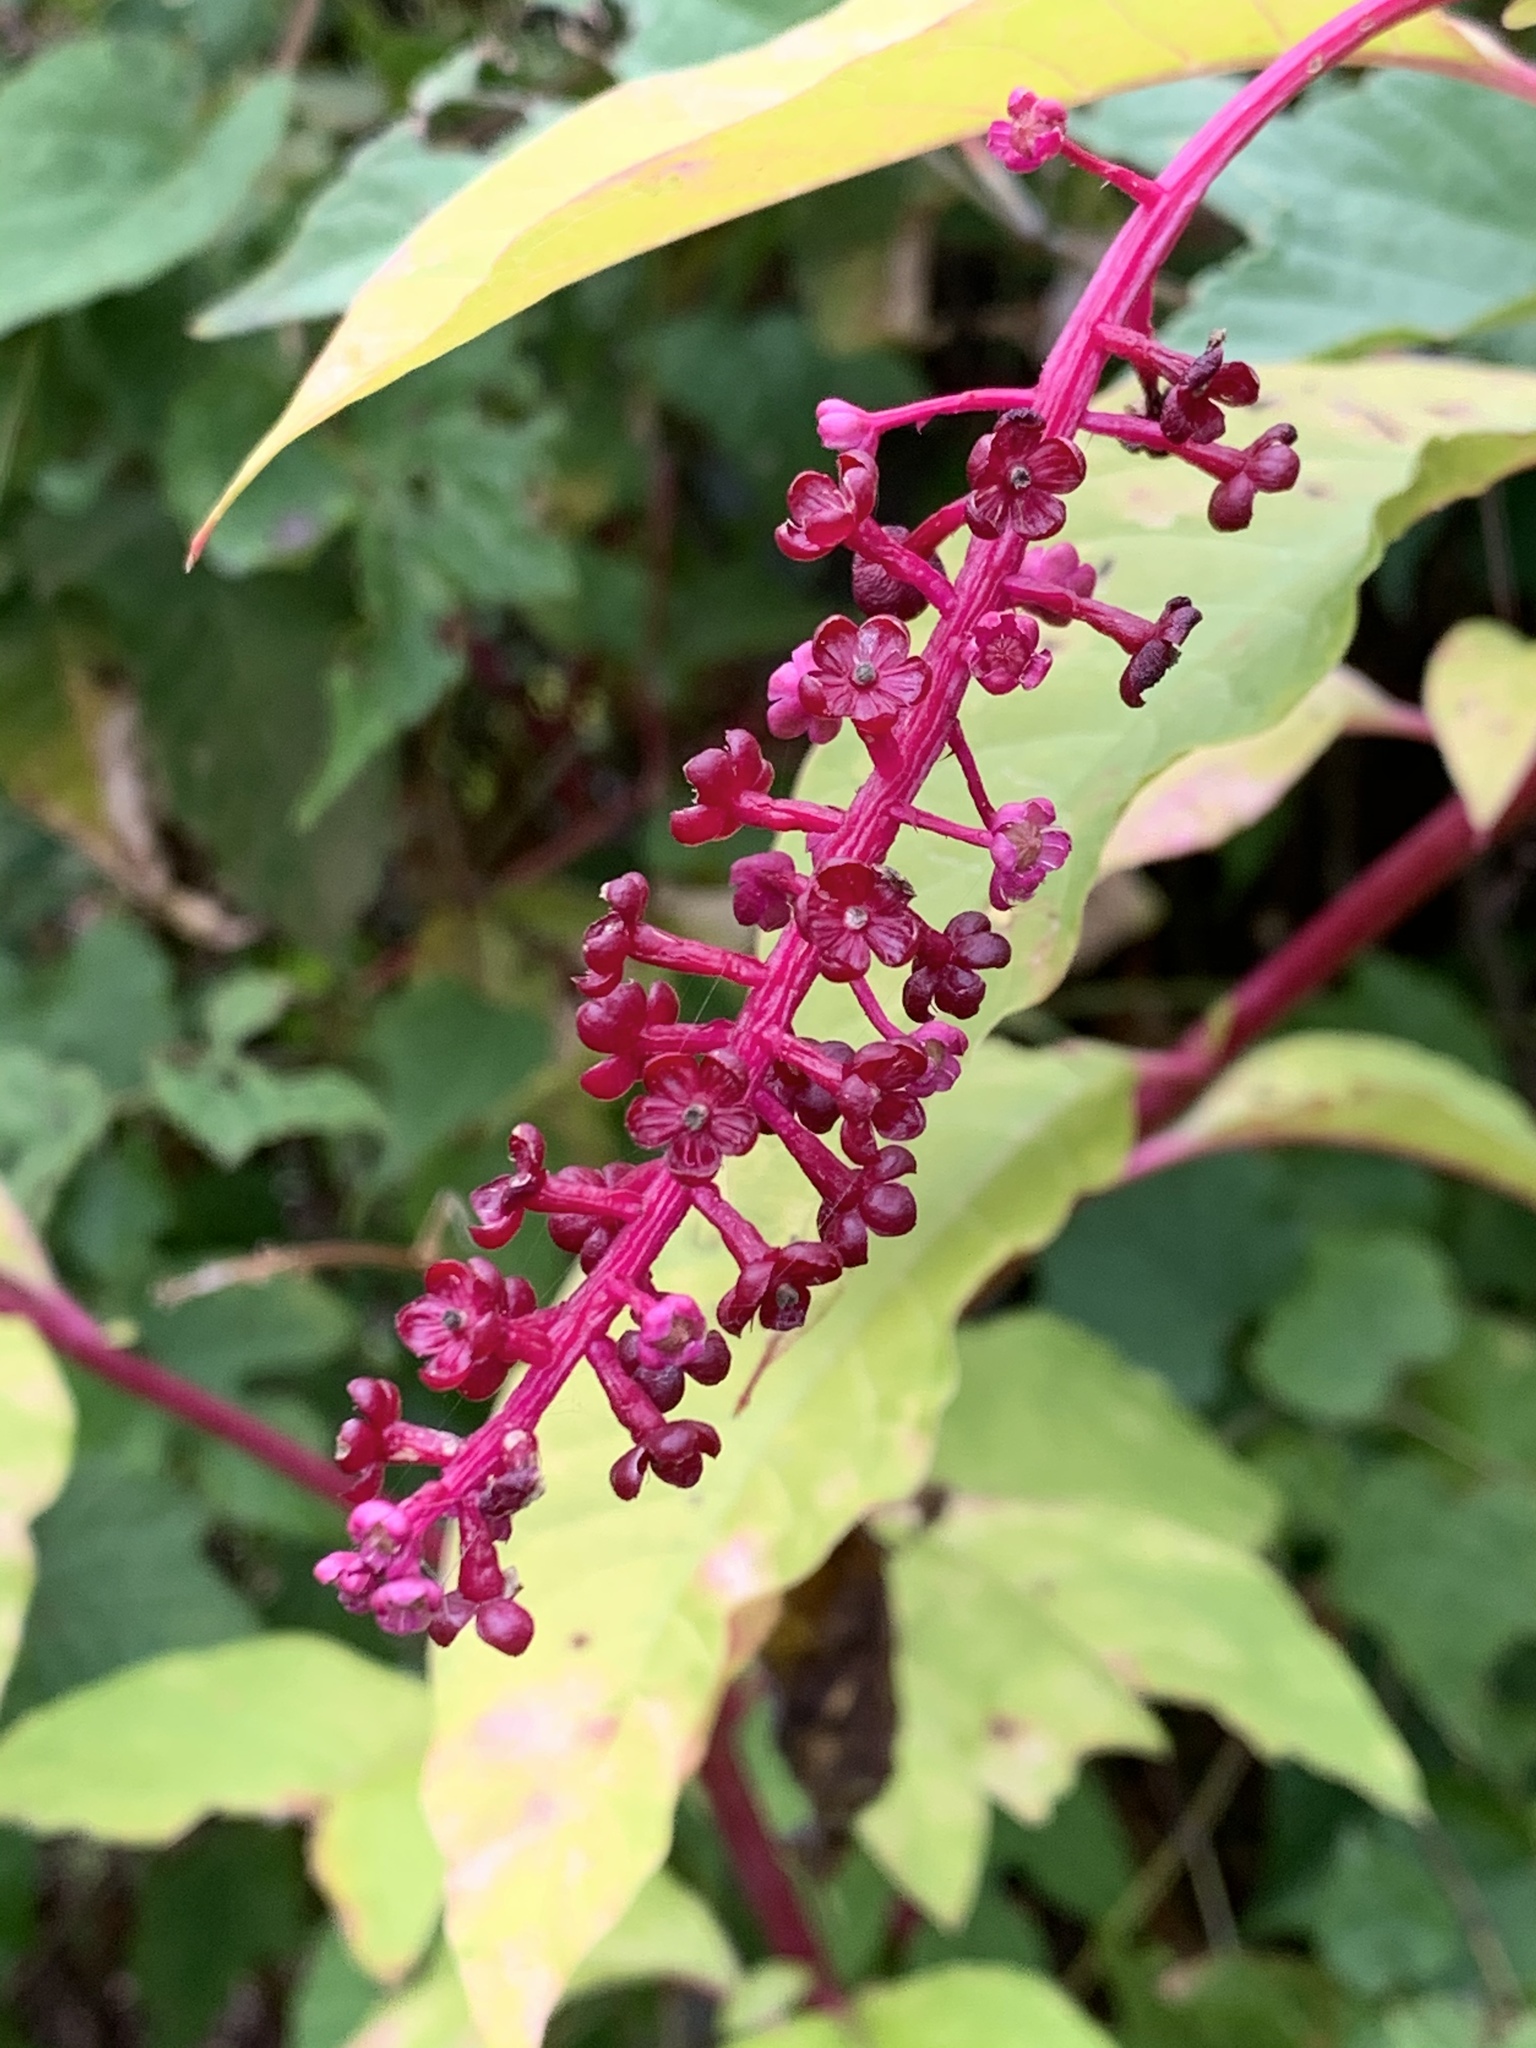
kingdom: Plantae
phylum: Tracheophyta
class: Magnoliopsida
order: Caryophyllales
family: Phytolaccaceae
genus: Phytolacca
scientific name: Phytolacca americana
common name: American pokeweed
